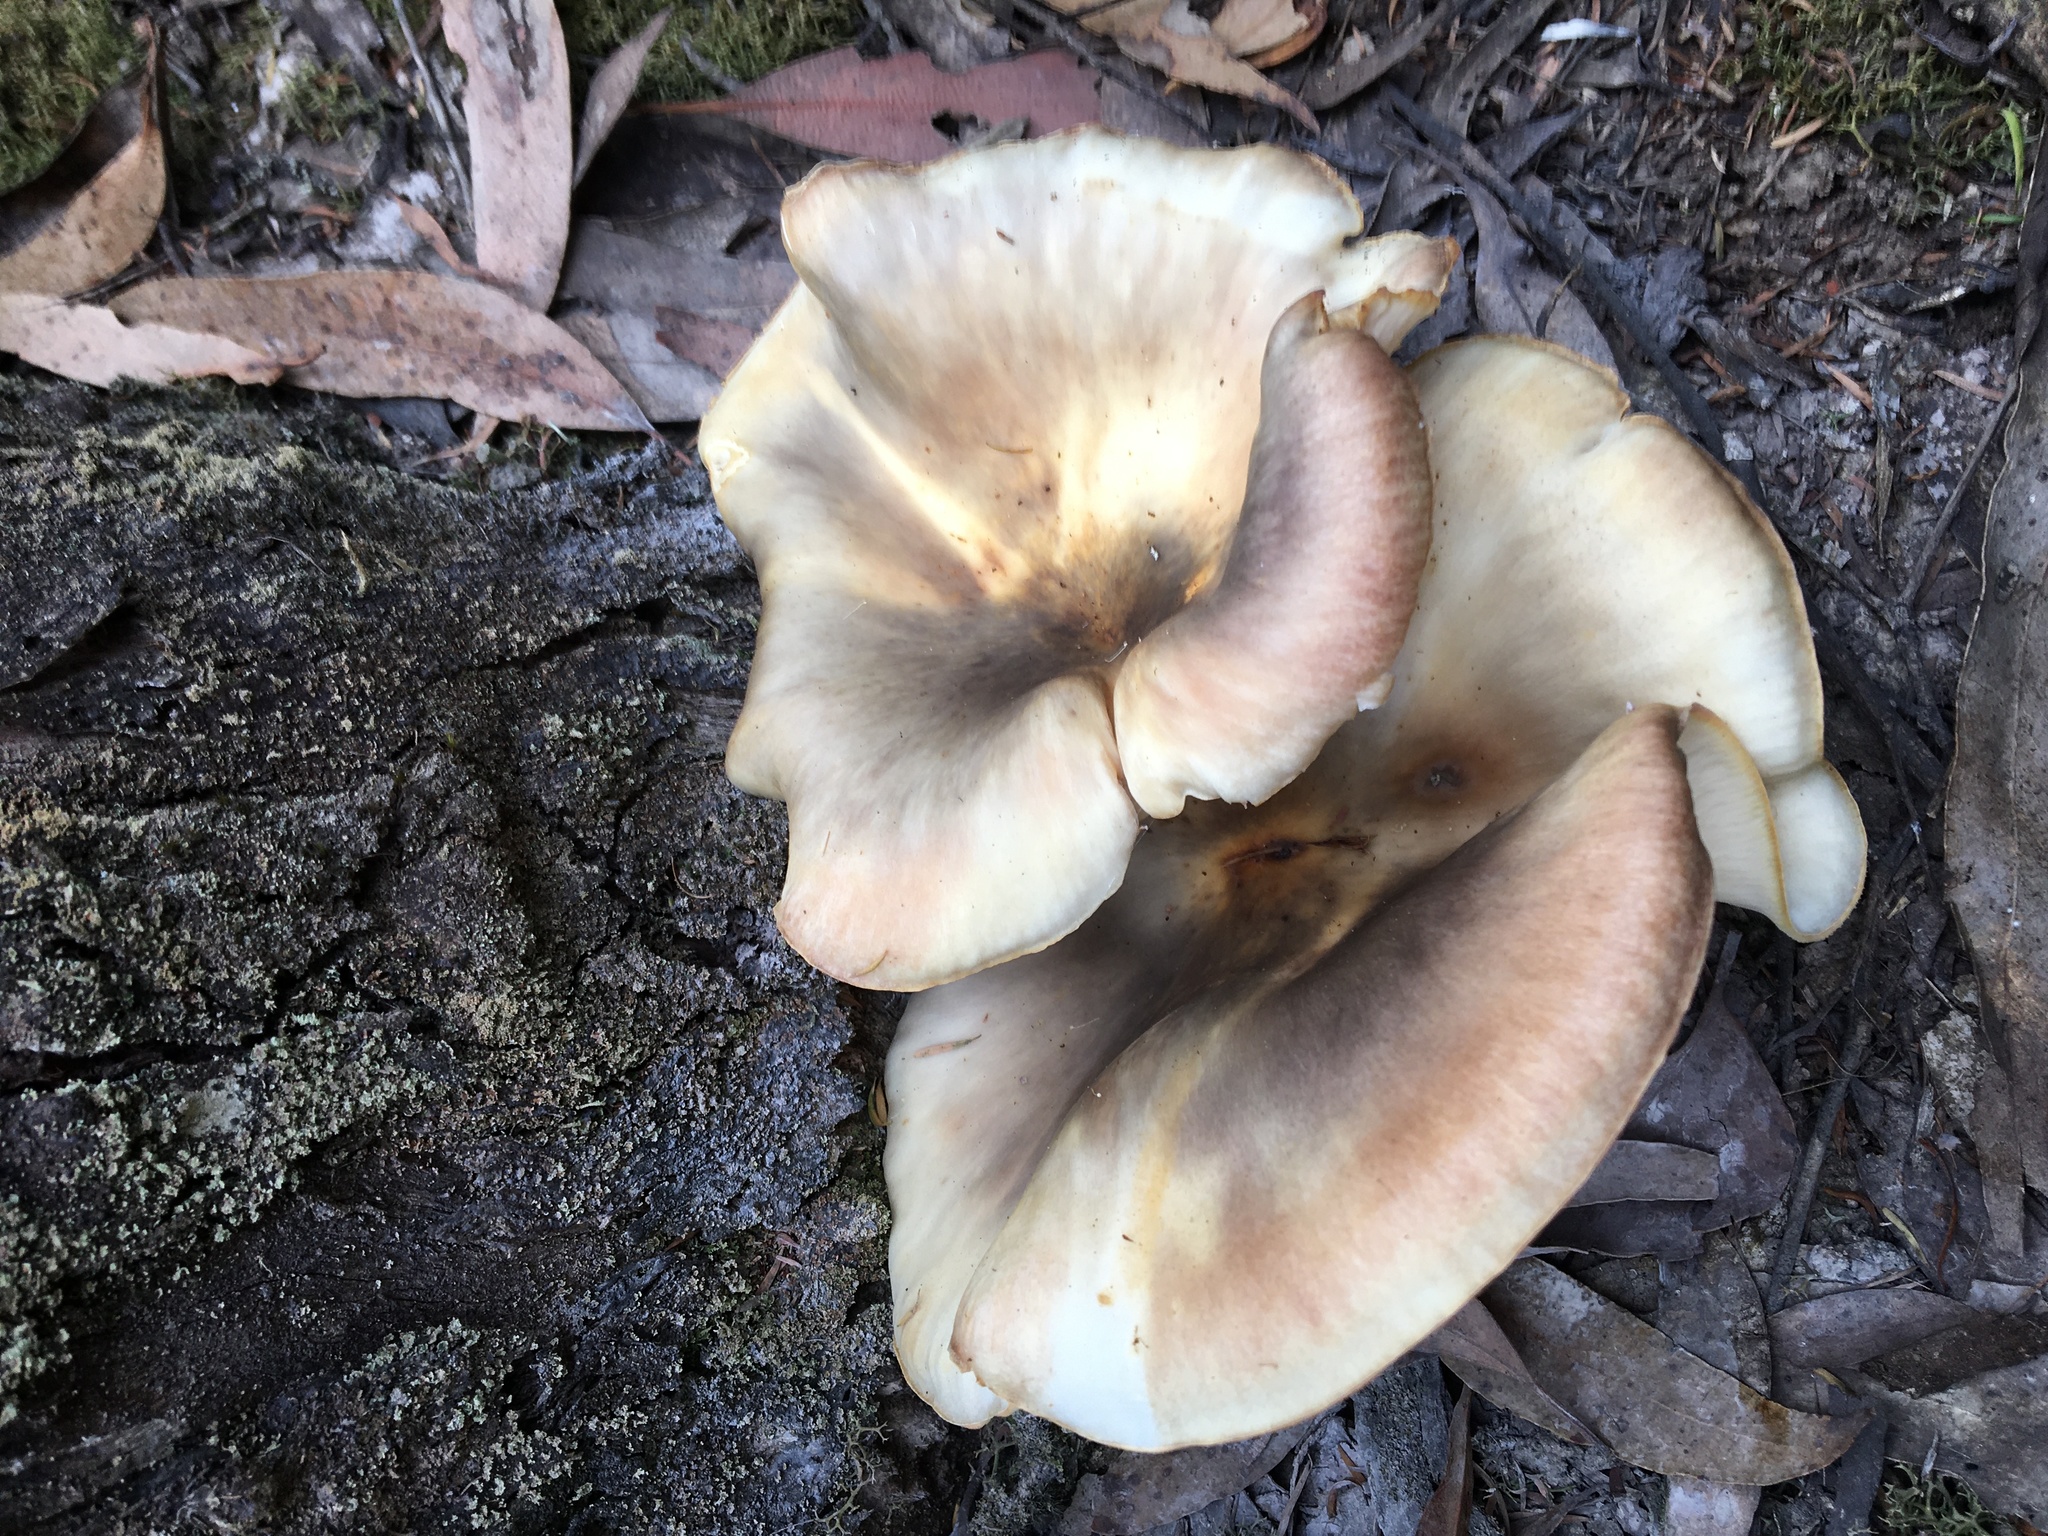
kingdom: Fungi
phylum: Basidiomycota
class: Agaricomycetes
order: Agaricales
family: Omphalotaceae
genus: Omphalotus
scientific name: Omphalotus nidiformis
